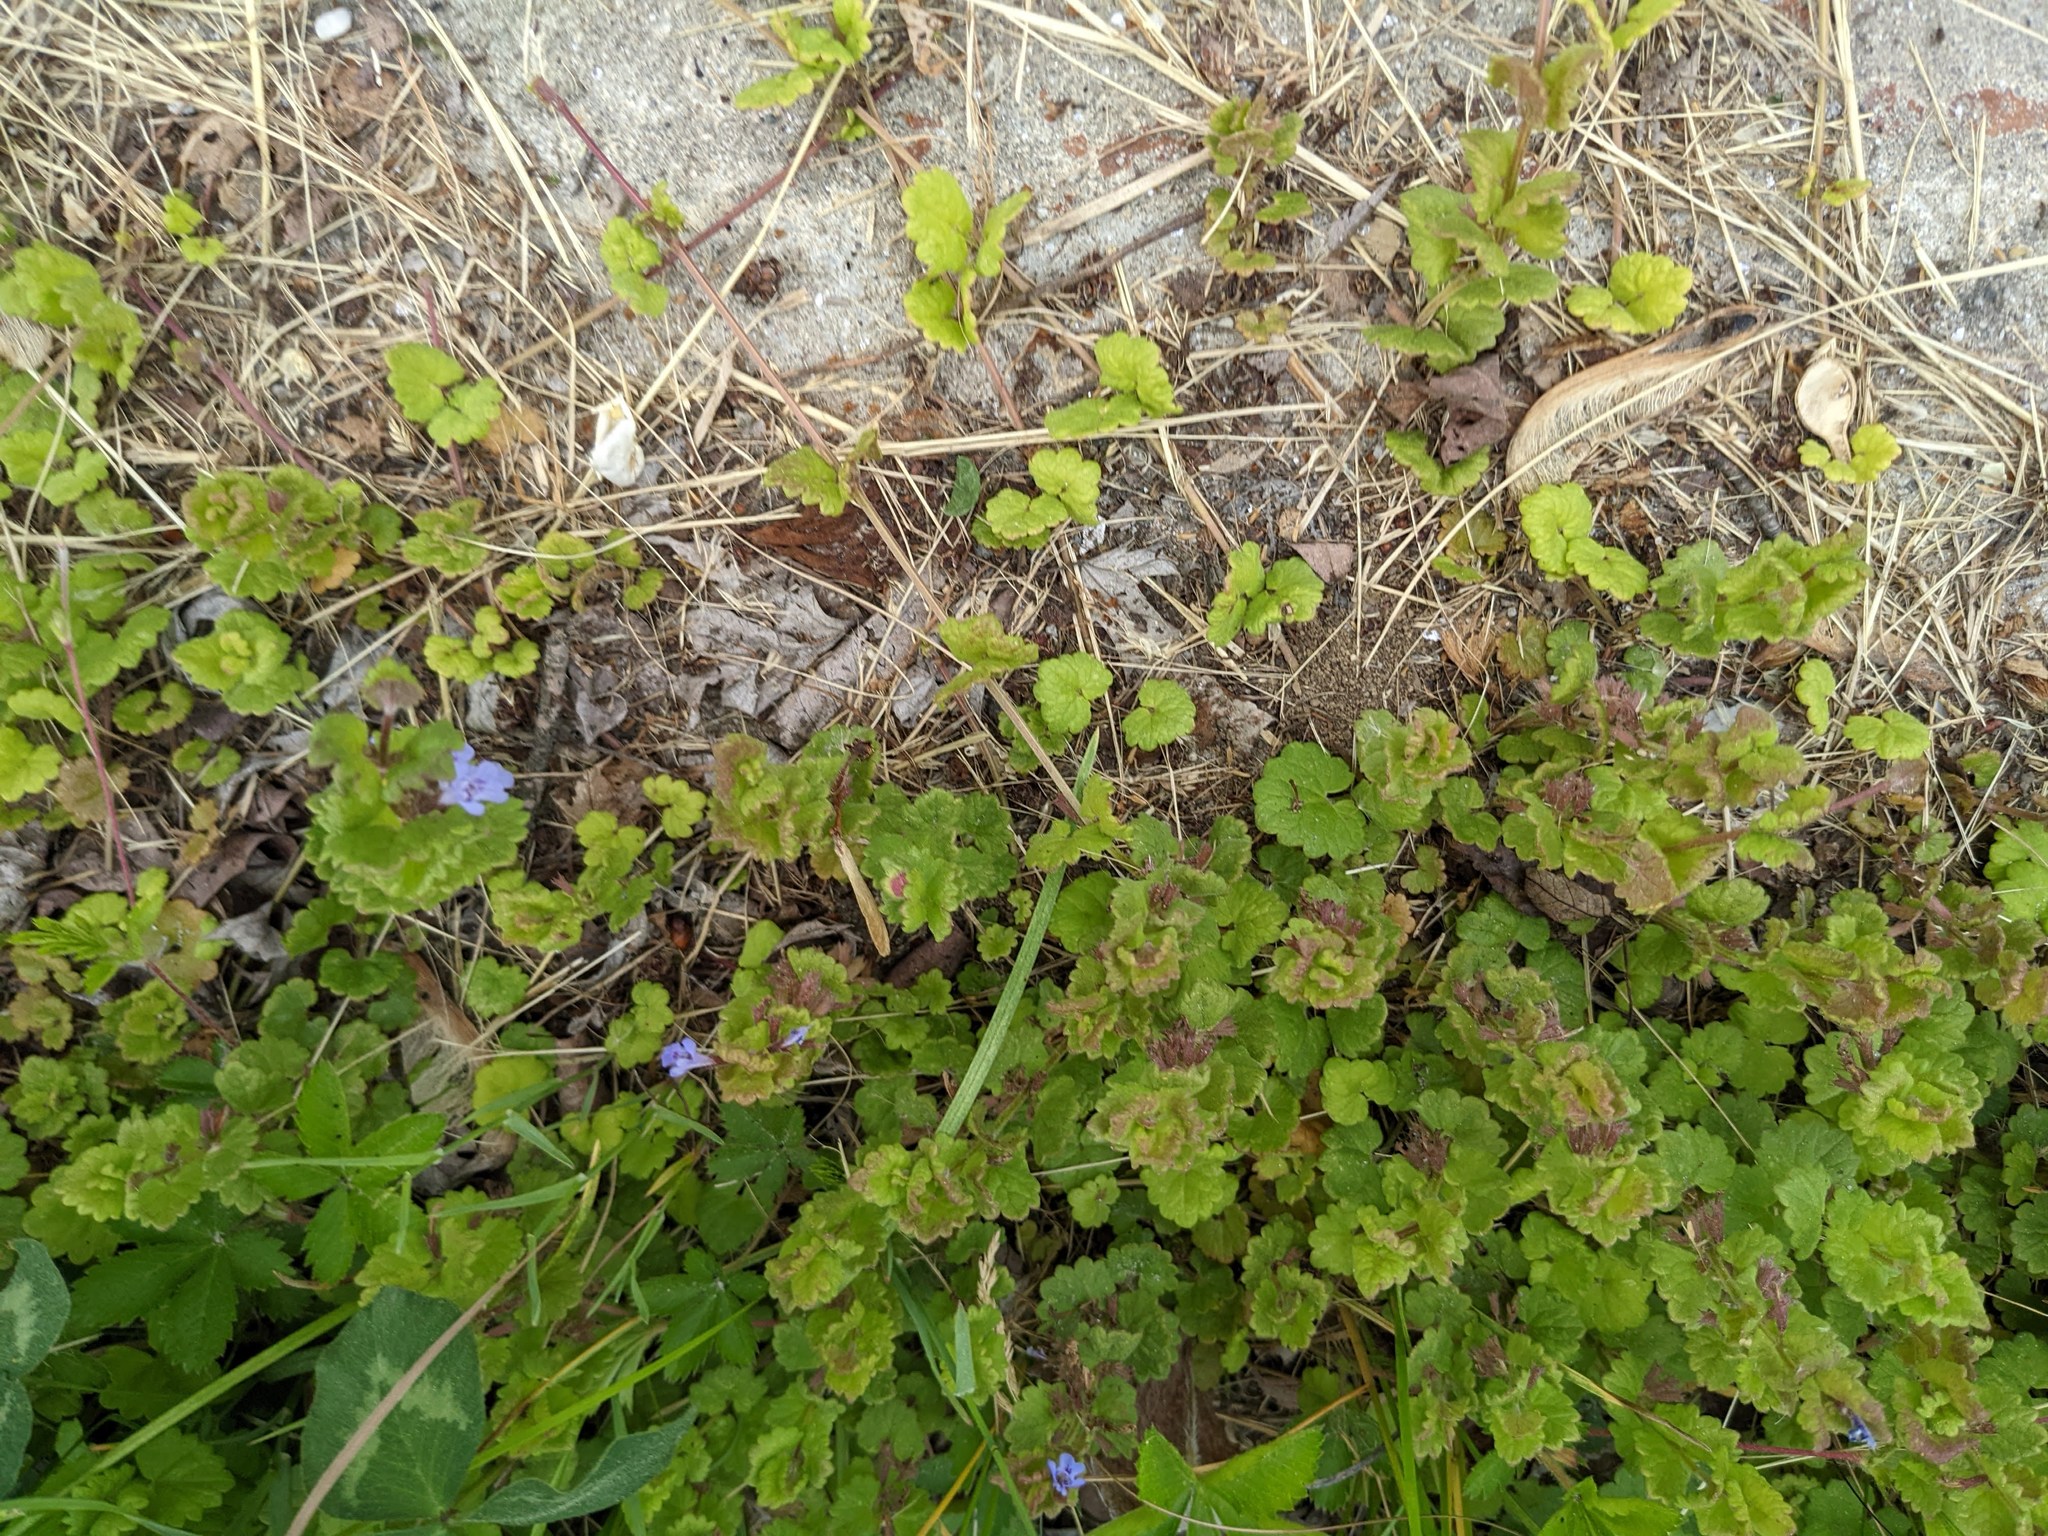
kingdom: Plantae
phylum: Tracheophyta
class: Magnoliopsida
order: Lamiales
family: Lamiaceae
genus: Glechoma
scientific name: Glechoma hederacea
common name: Ground ivy
